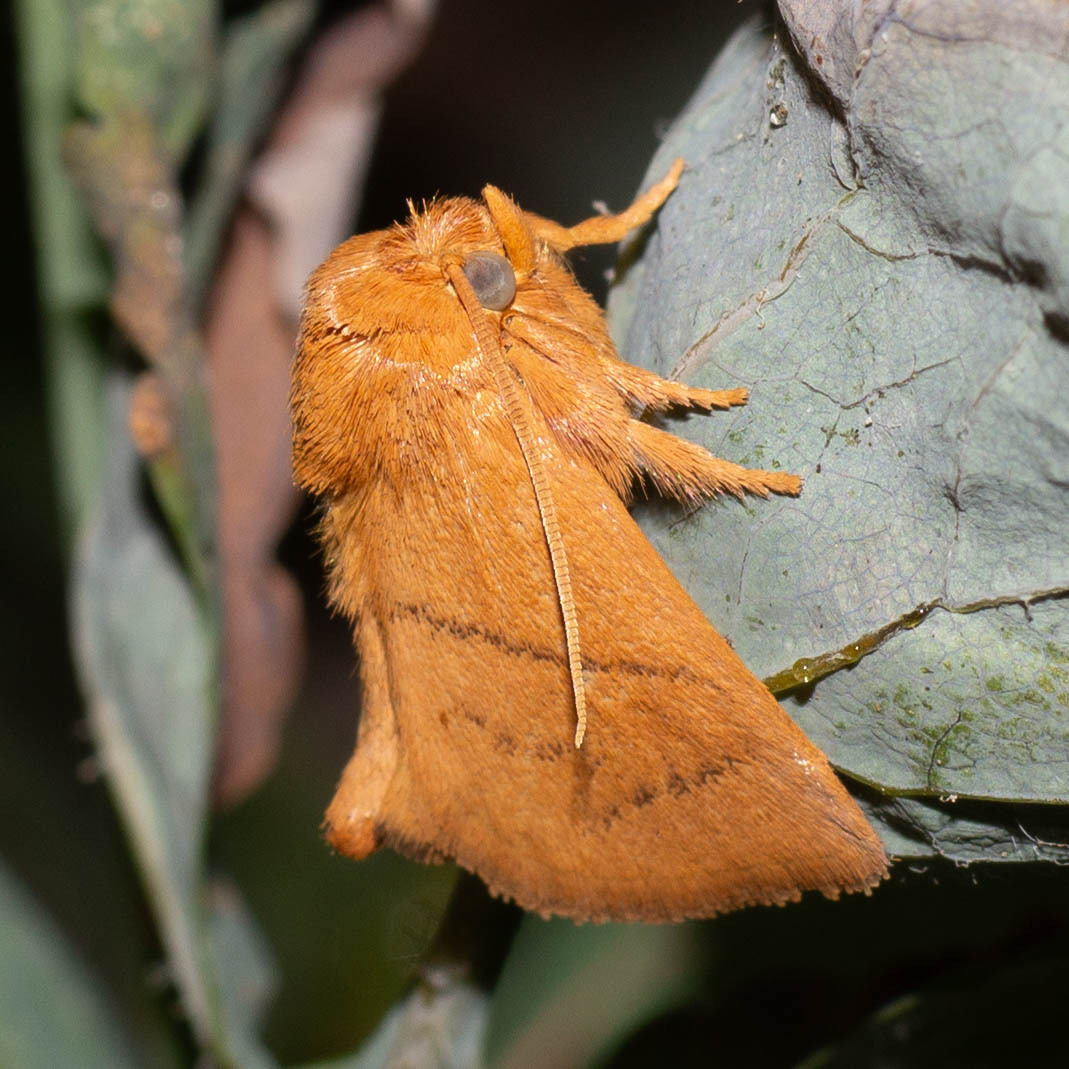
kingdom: Animalia
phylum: Arthropoda
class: Insecta
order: Lepidoptera
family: Limacodidae
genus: Hoyosia
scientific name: Hoyosia codeti
